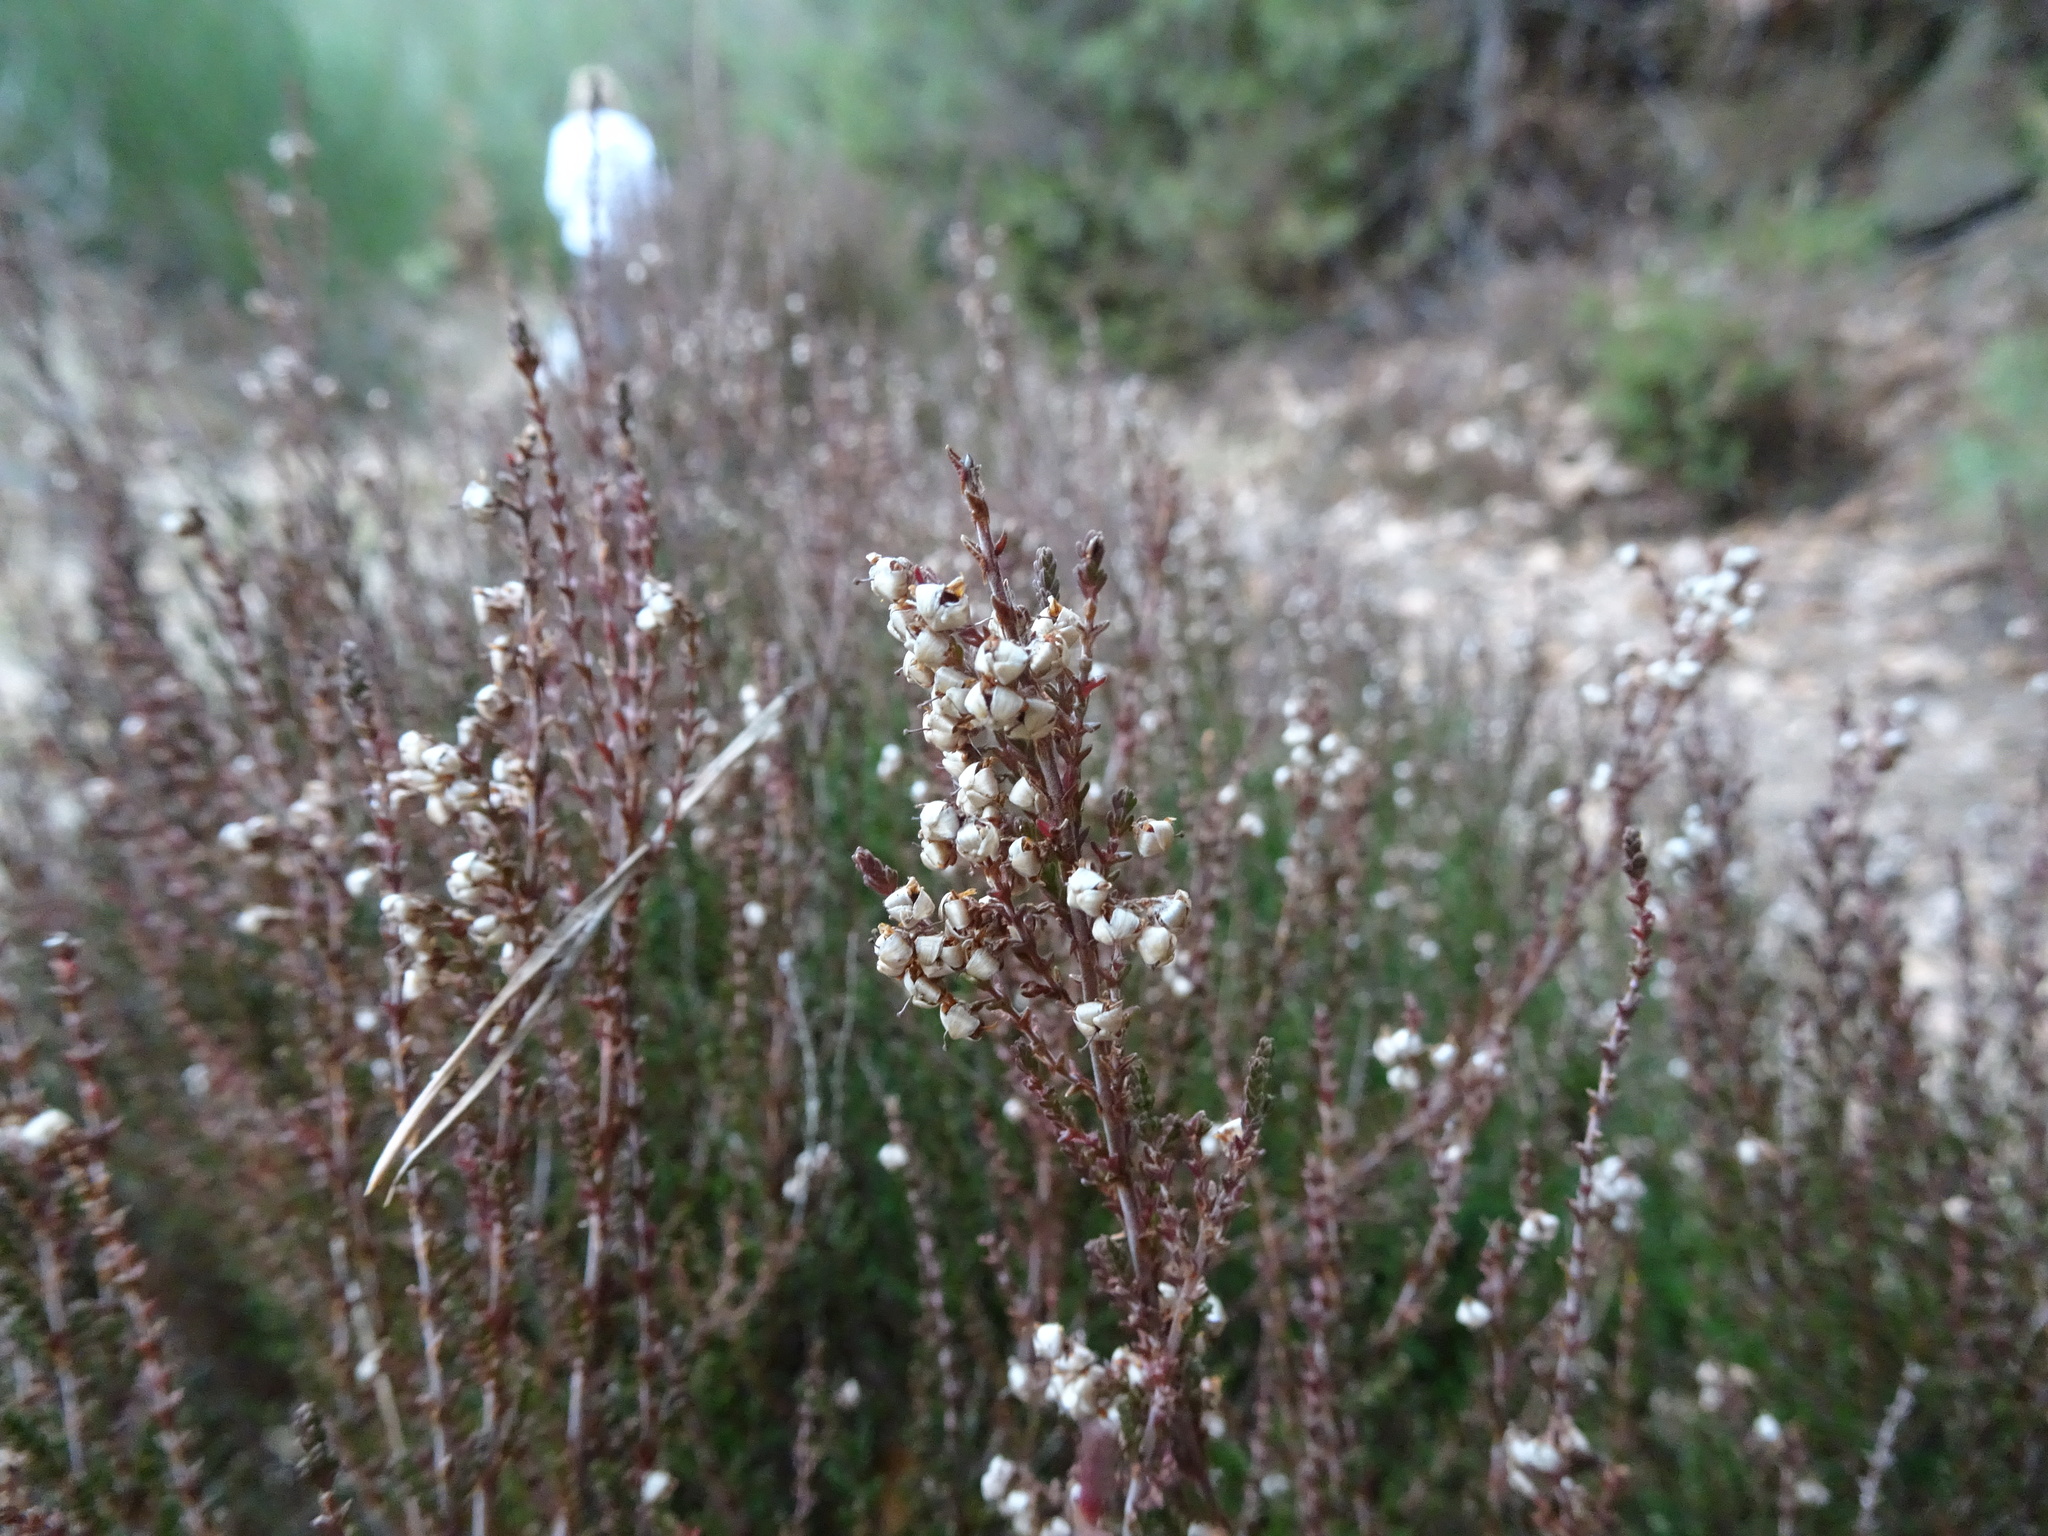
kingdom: Plantae
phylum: Tracheophyta
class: Magnoliopsida
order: Ericales
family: Ericaceae
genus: Calluna
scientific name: Calluna vulgaris
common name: Heather
